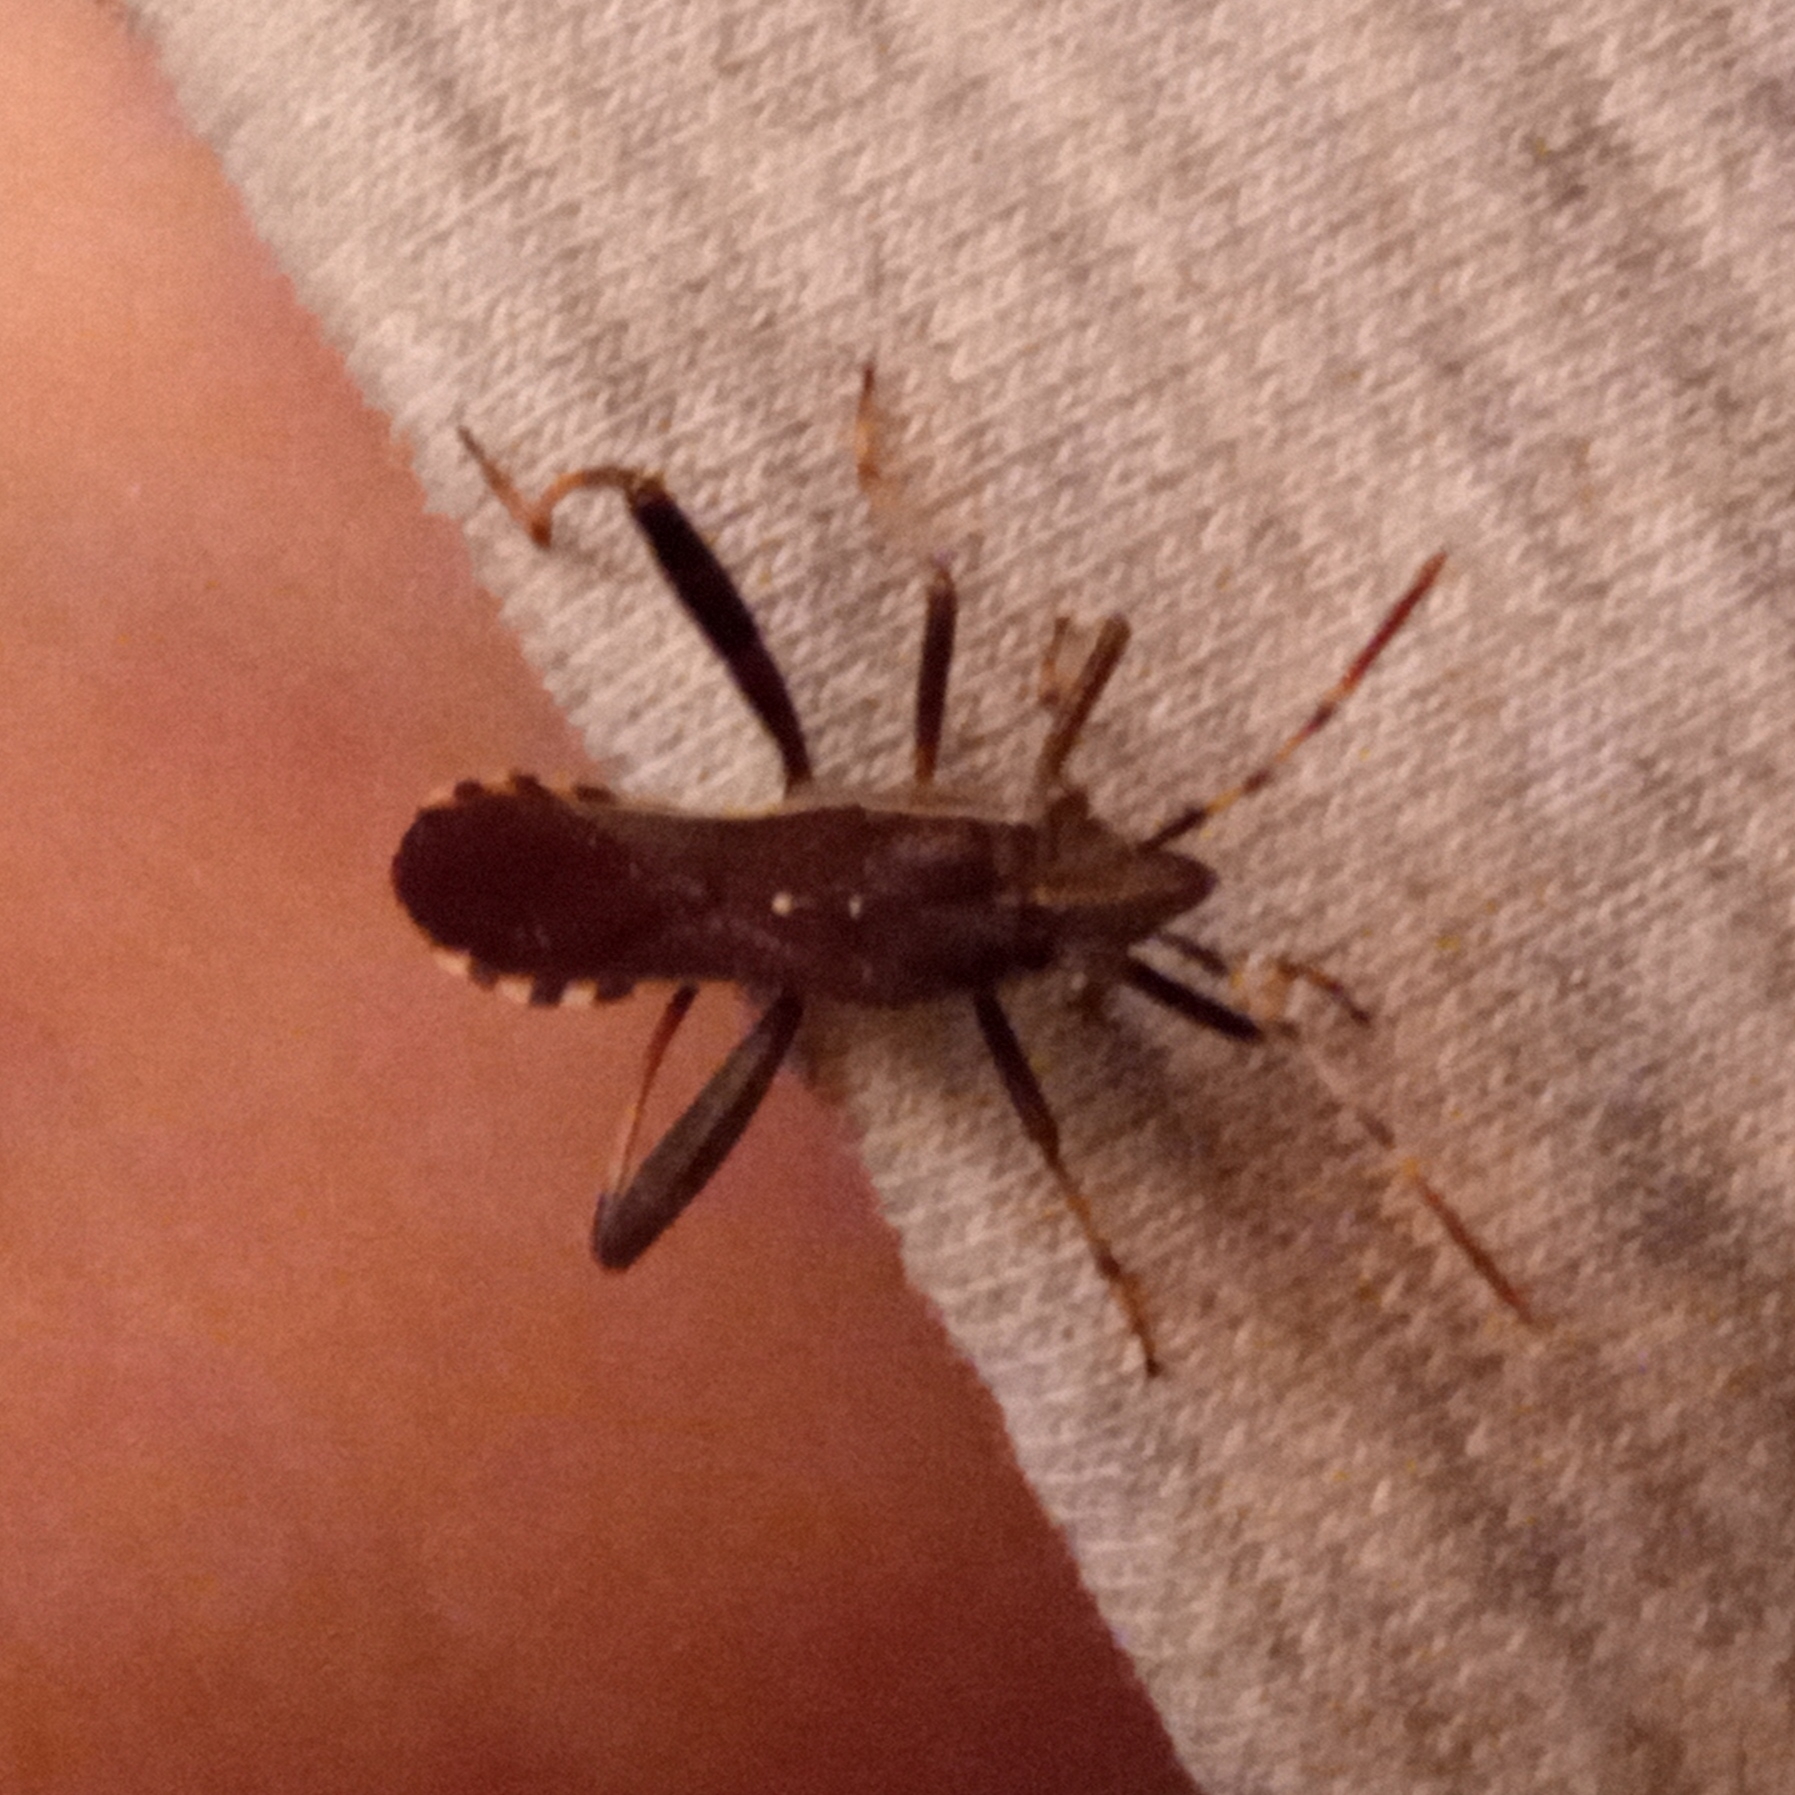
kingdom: Animalia
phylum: Arthropoda
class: Insecta
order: Hemiptera
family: Alydidae
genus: Camptopus
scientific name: Camptopus lateralis
